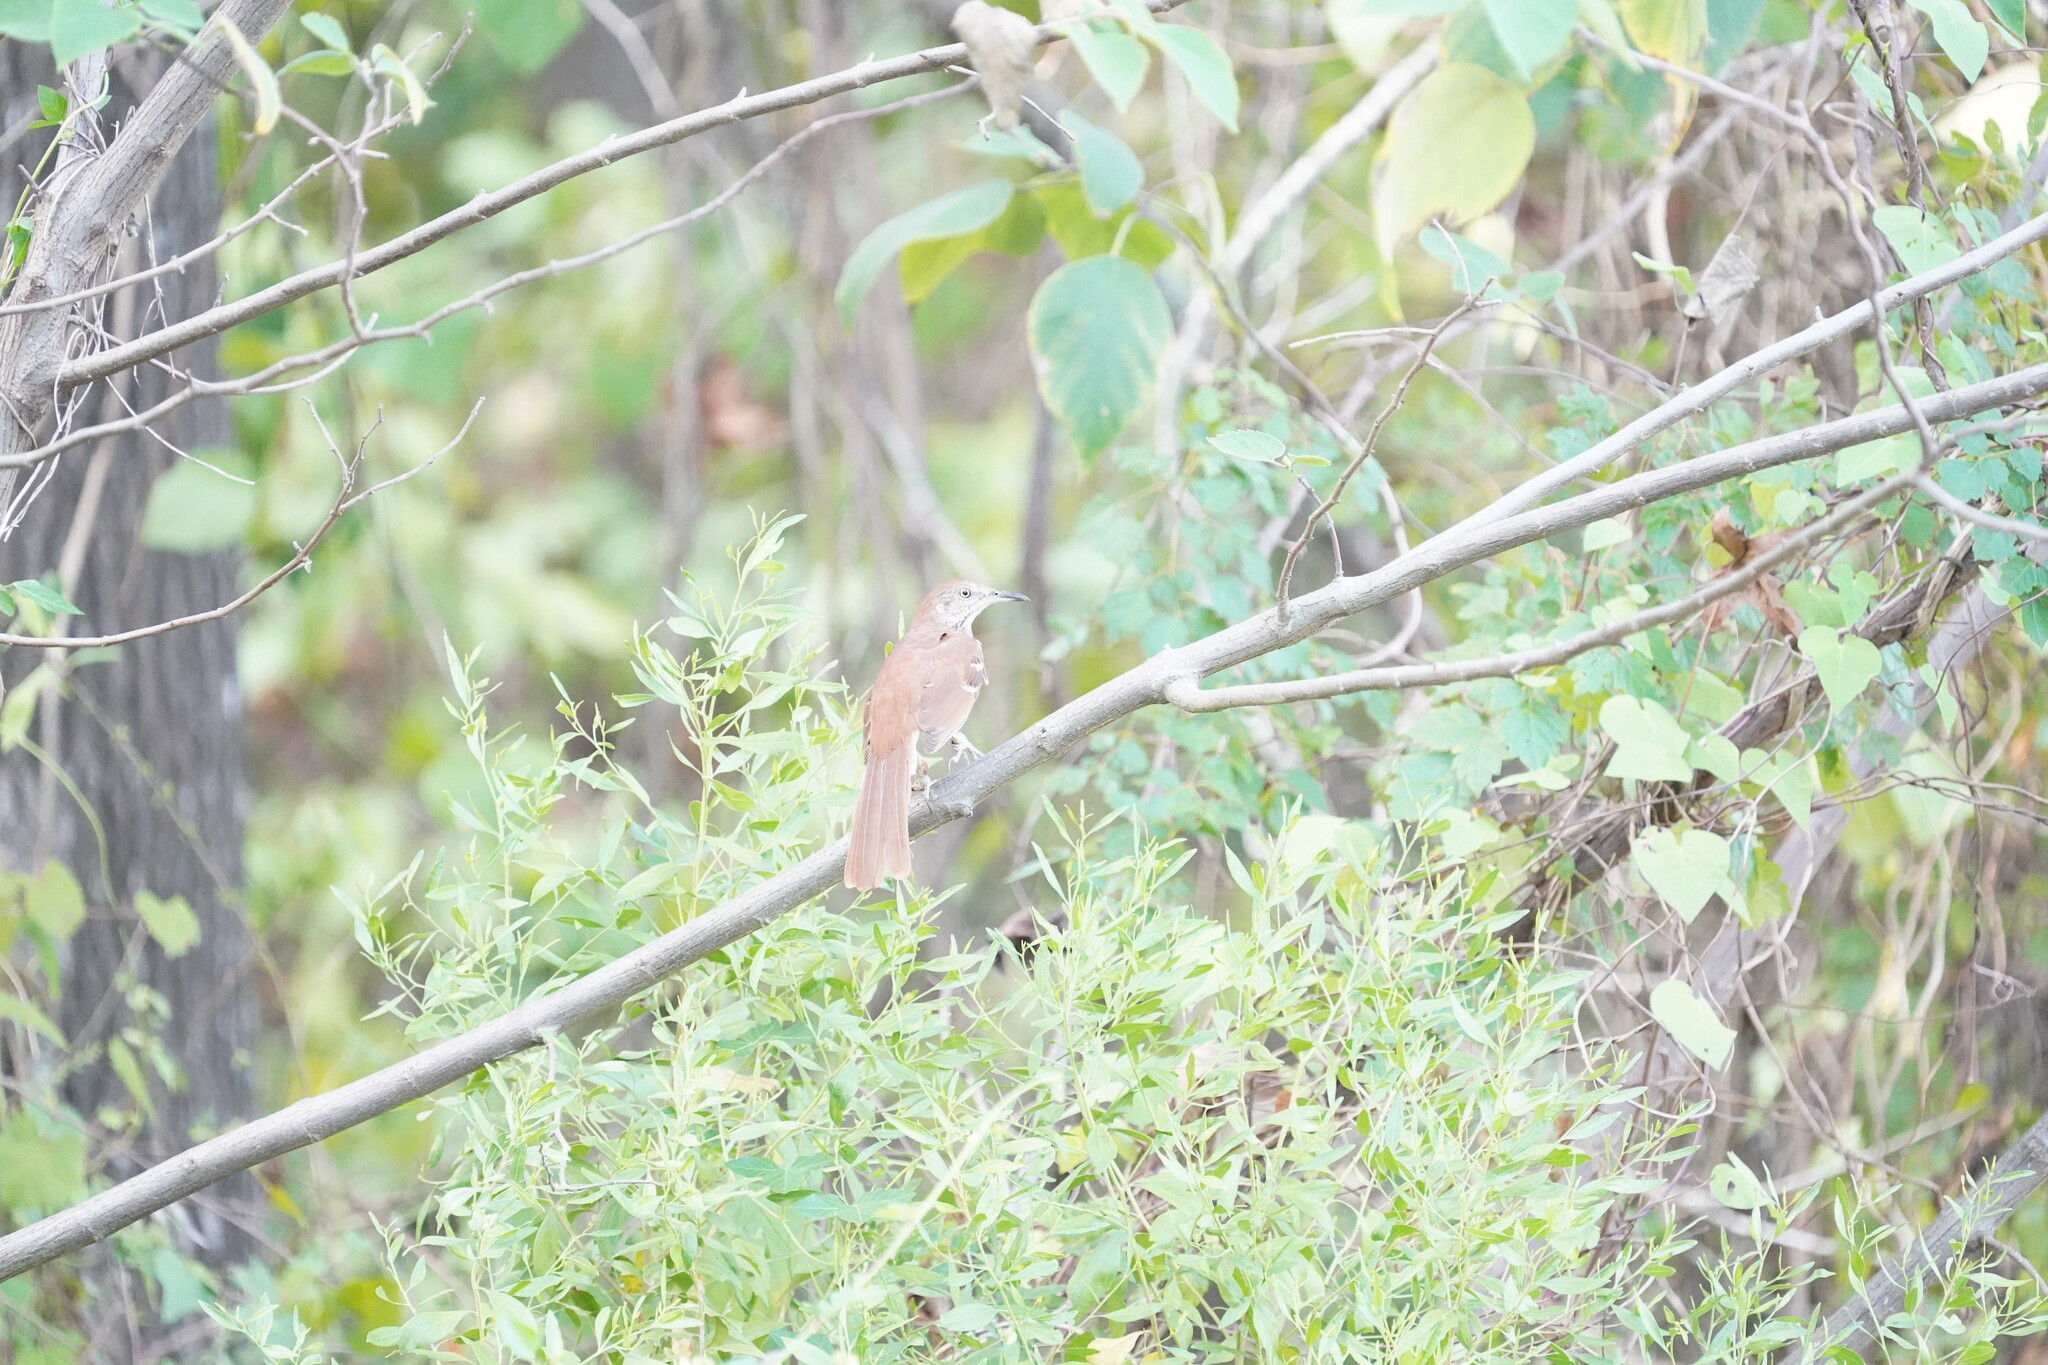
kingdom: Animalia
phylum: Chordata
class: Aves
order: Passeriformes
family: Mimidae
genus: Toxostoma
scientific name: Toxostoma rufum
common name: Brown thrasher
